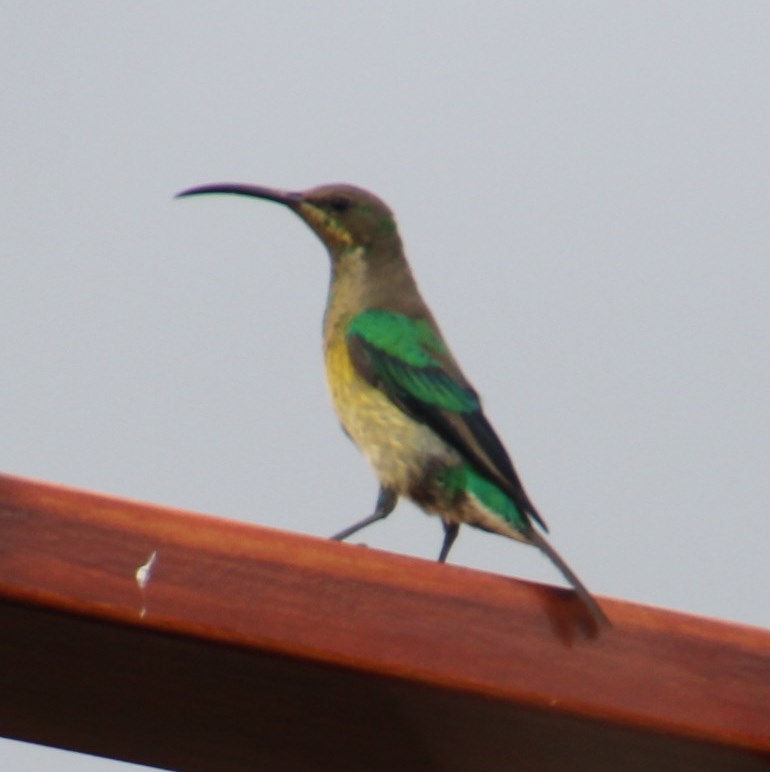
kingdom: Animalia
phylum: Chordata
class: Aves
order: Passeriformes
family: Nectariniidae
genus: Nectarinia
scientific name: Nectarinia famosa
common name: Malachite sunbird
